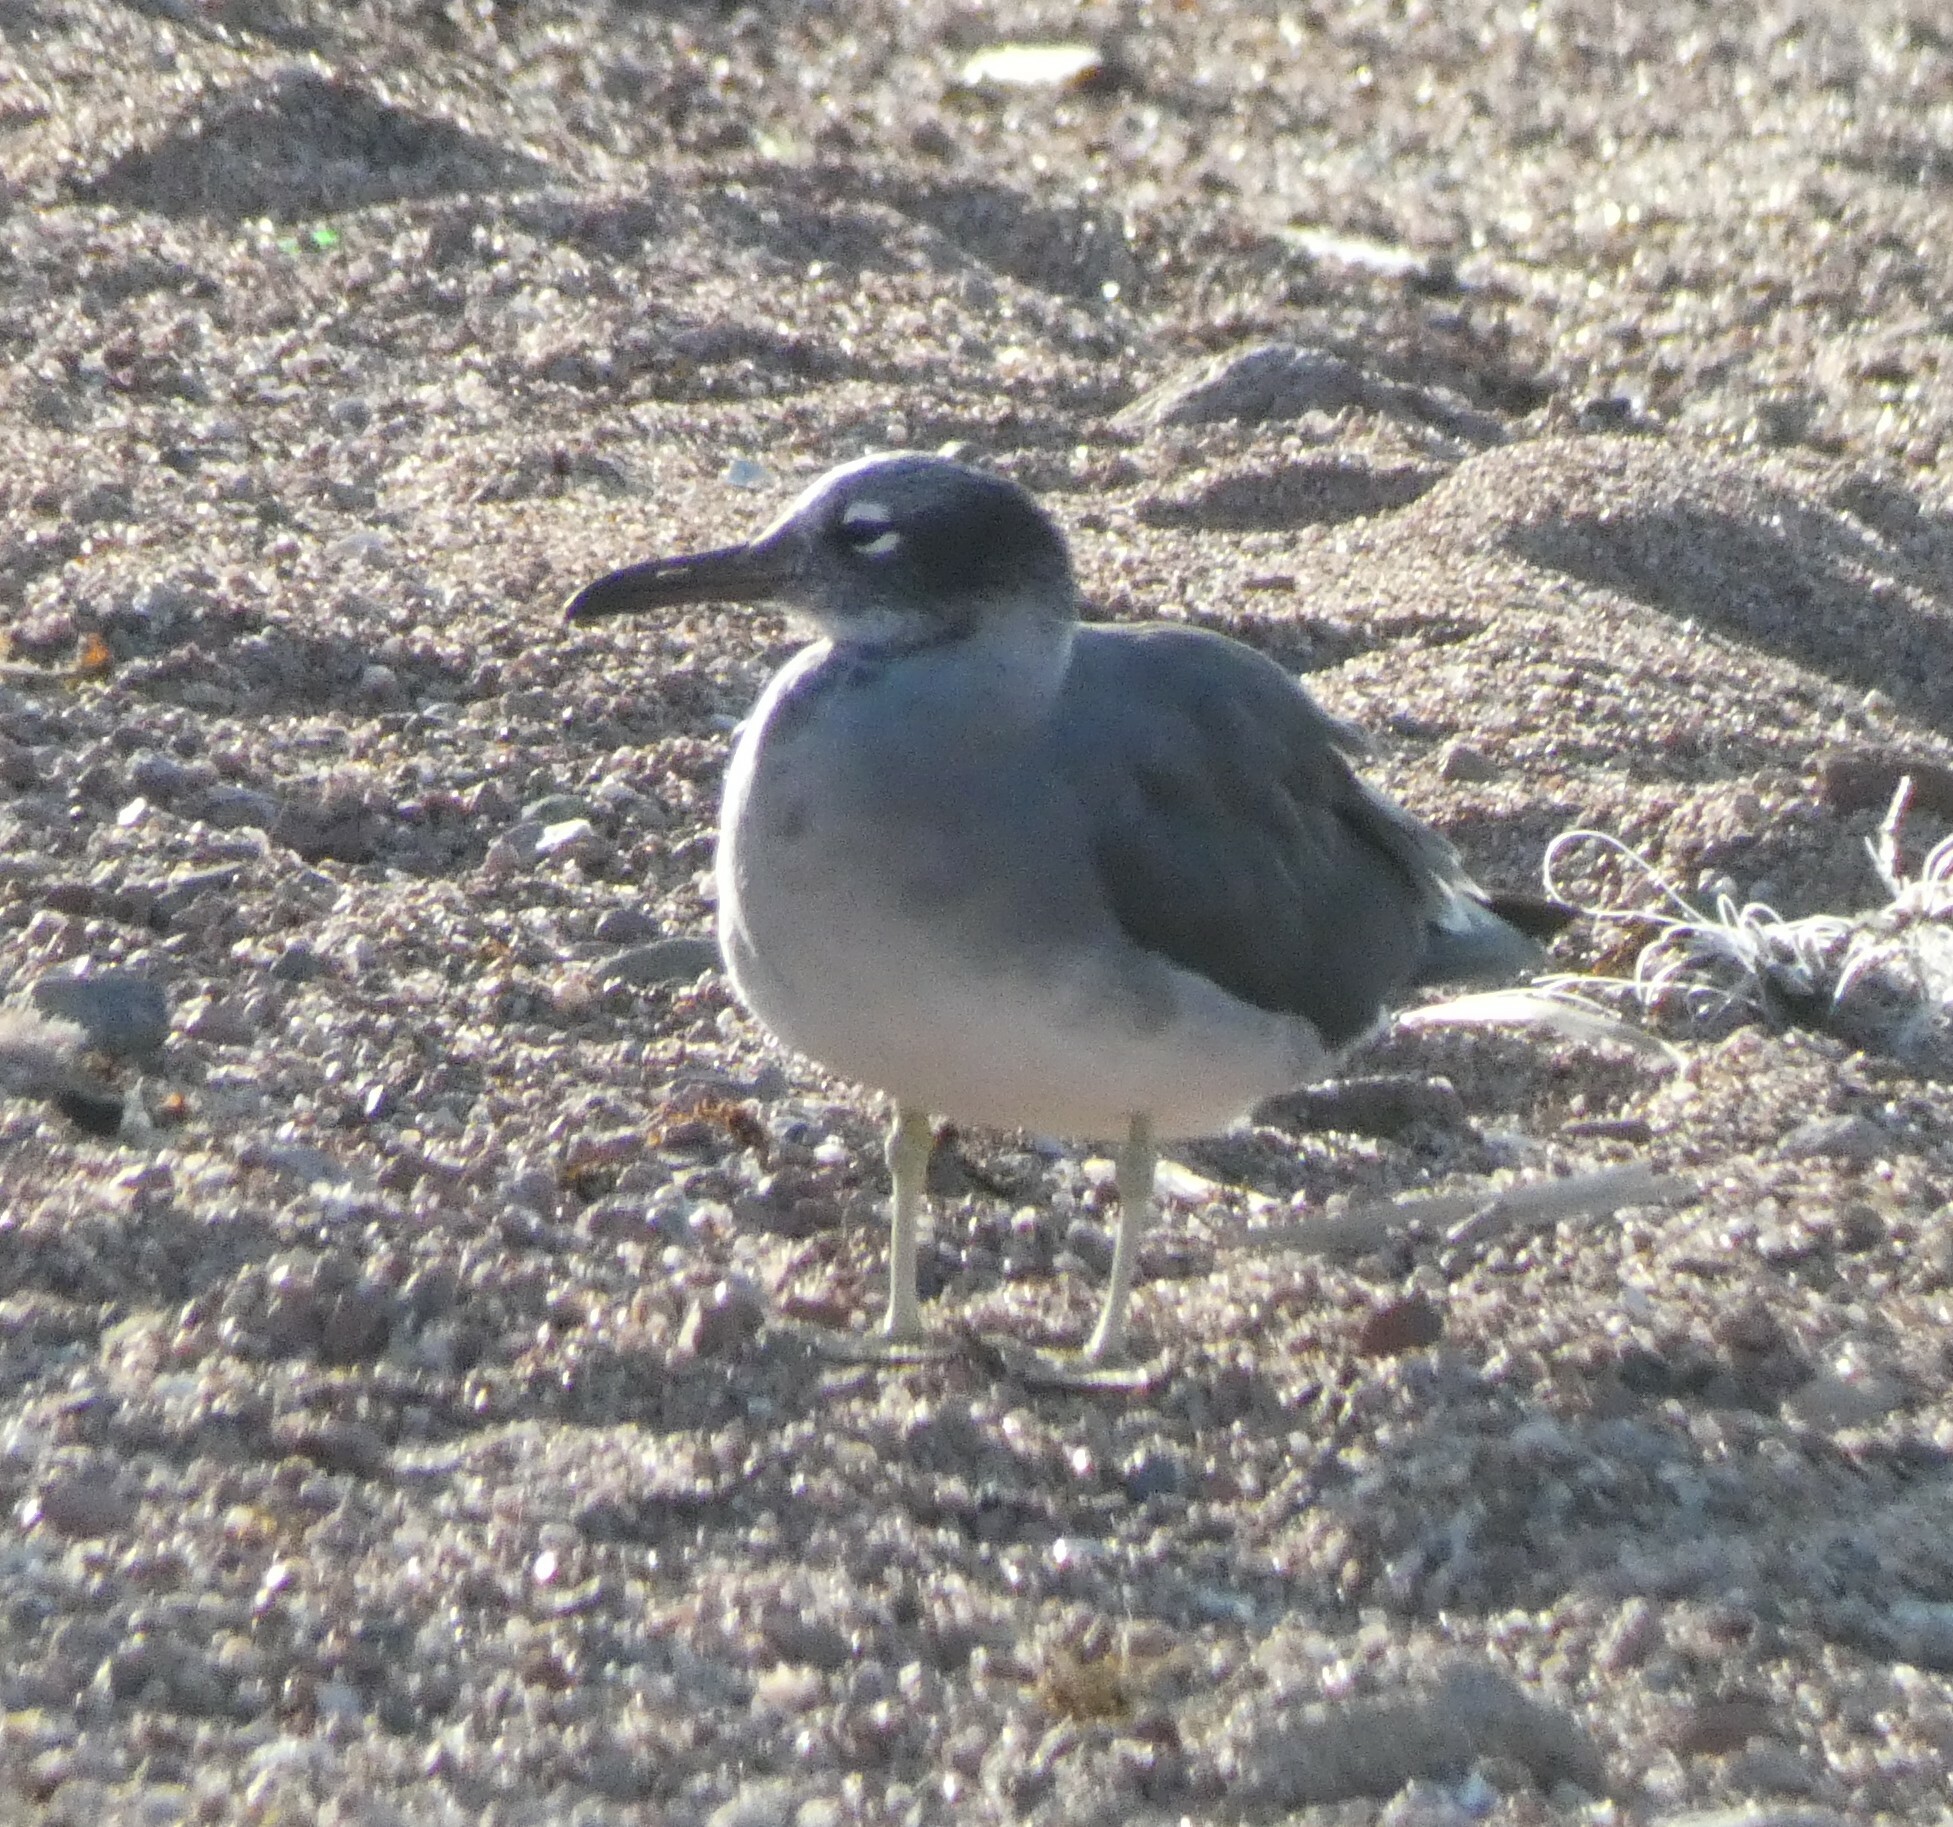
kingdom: Animalia
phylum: Chordata
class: Aves
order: Charadriiformes
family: Laridae
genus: Ichthyaetus
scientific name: Ichthyaetus leucophthalmus
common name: White-eyed gull
